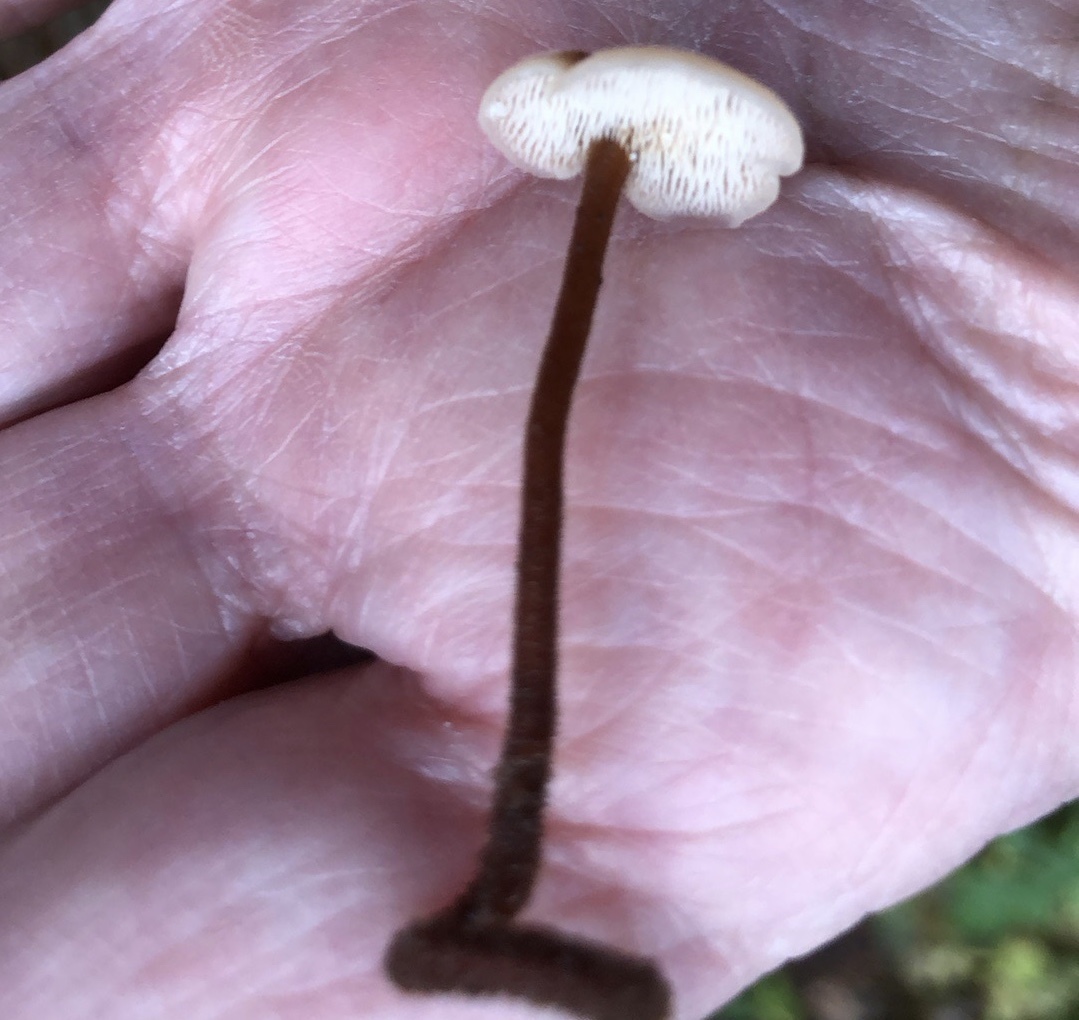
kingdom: Fungi
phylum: Basidiomycota
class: Agaricomycetes
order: Russulales
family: Auriscalpiaceae
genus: Auriscalpium
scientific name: Auriscalpium vulgare
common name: Earpick fungus
